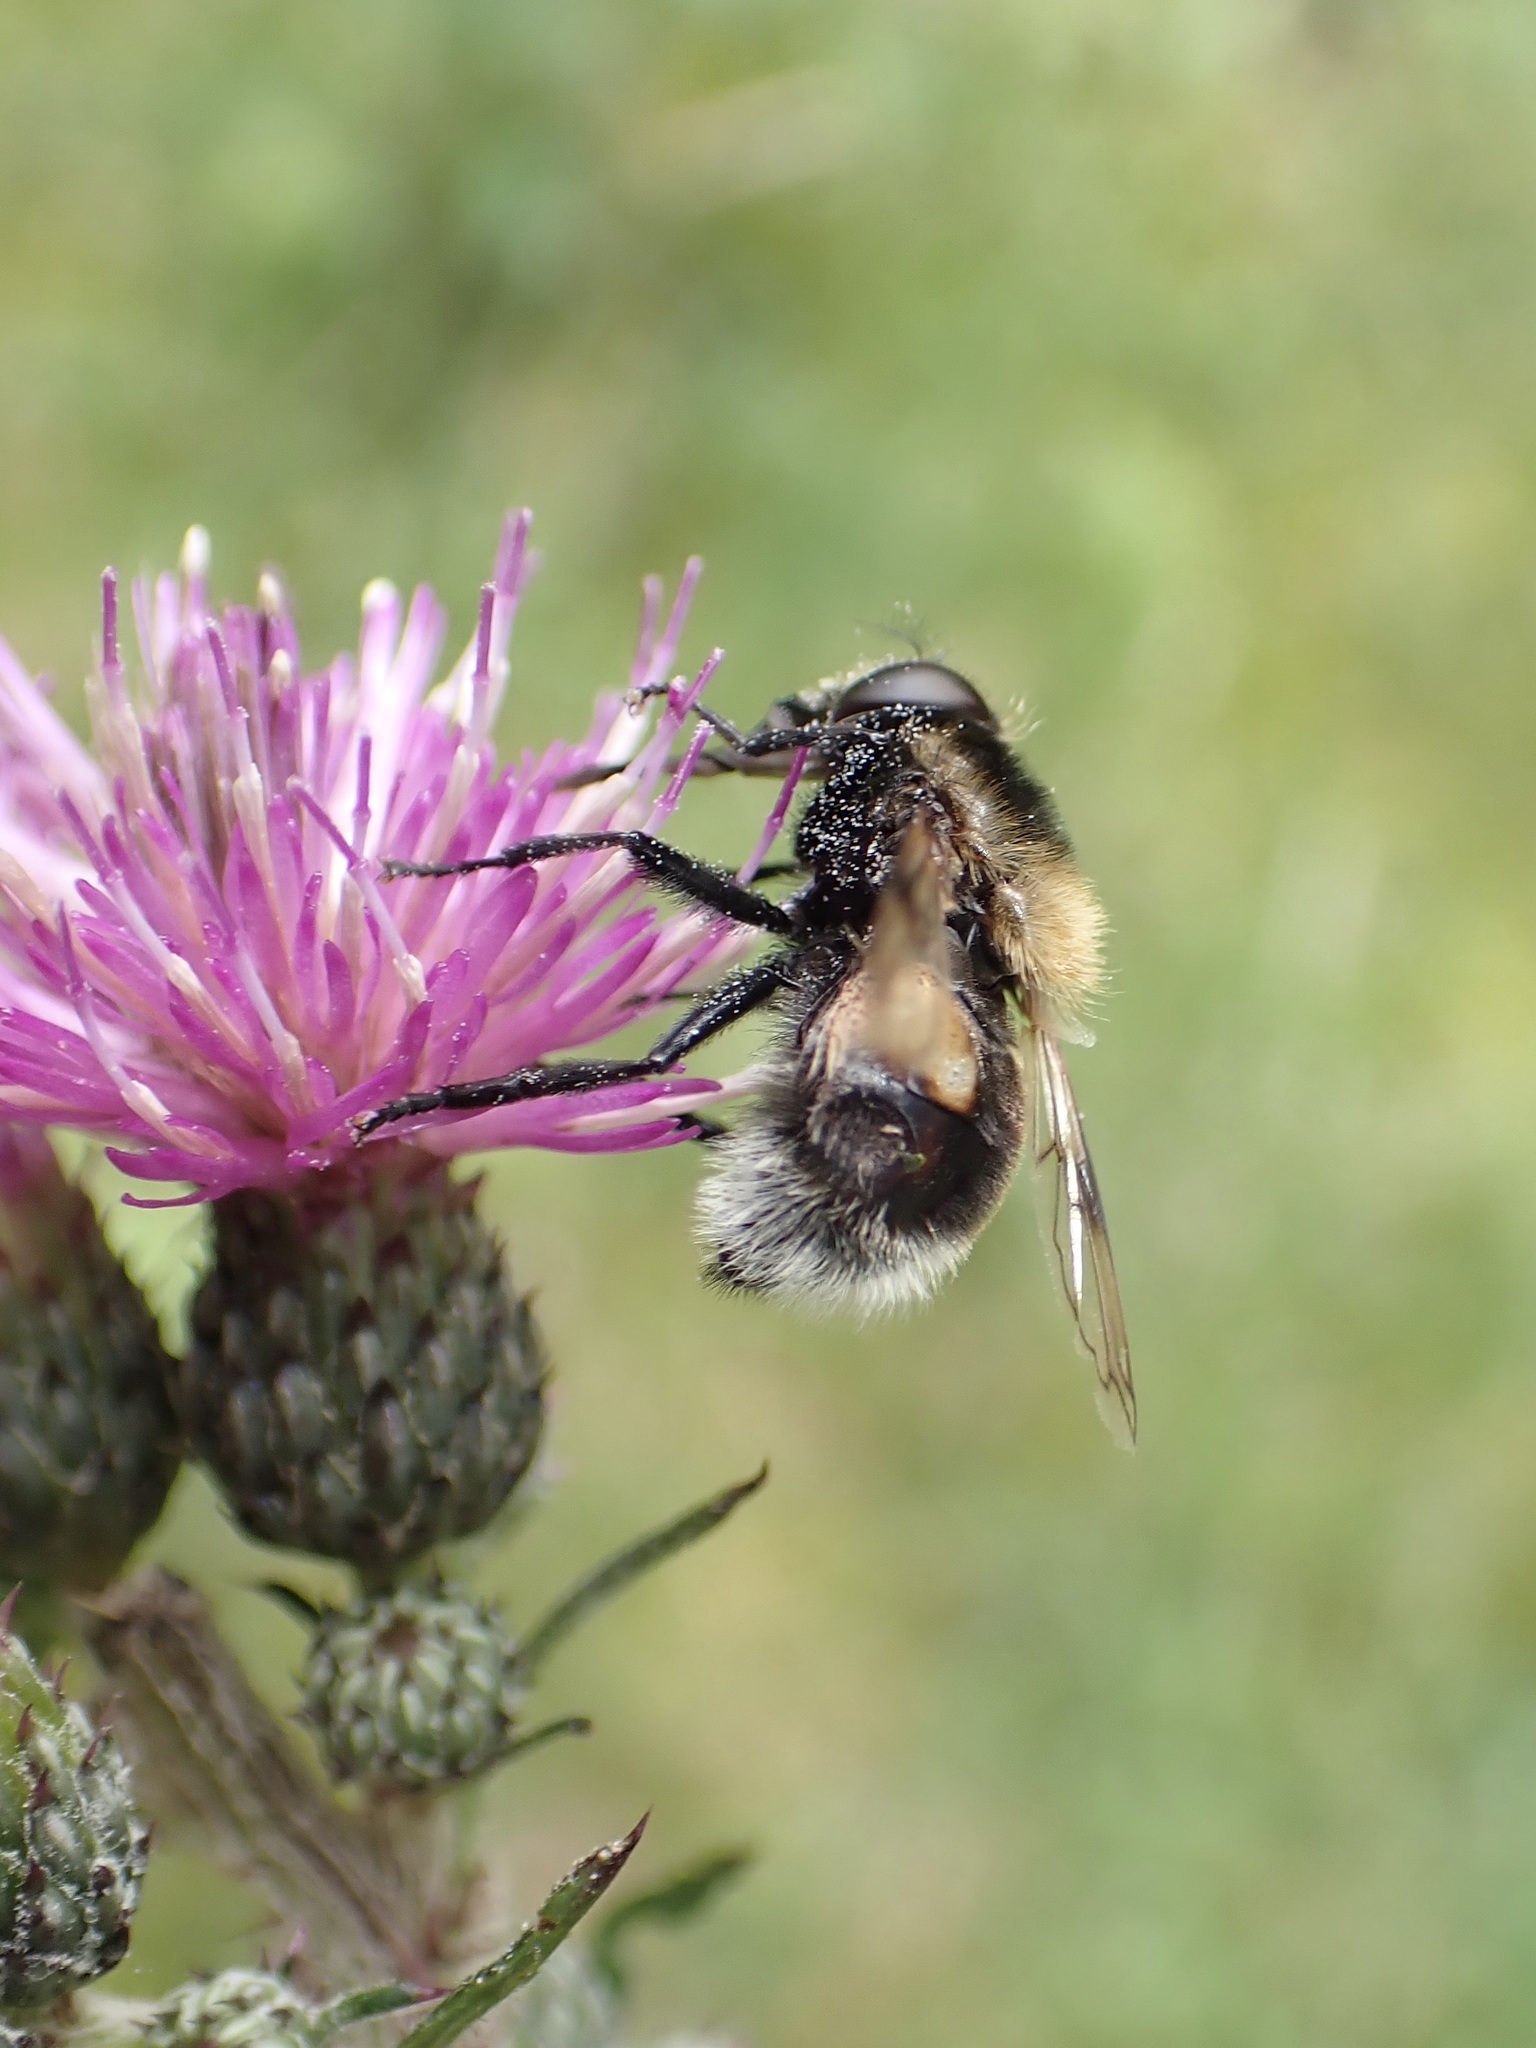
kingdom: Animalia
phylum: Arthropoda
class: Insecta
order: Diptera
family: Syrphidae
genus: Volucella
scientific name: Volucella bombylans
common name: Bumble bee hover fly
